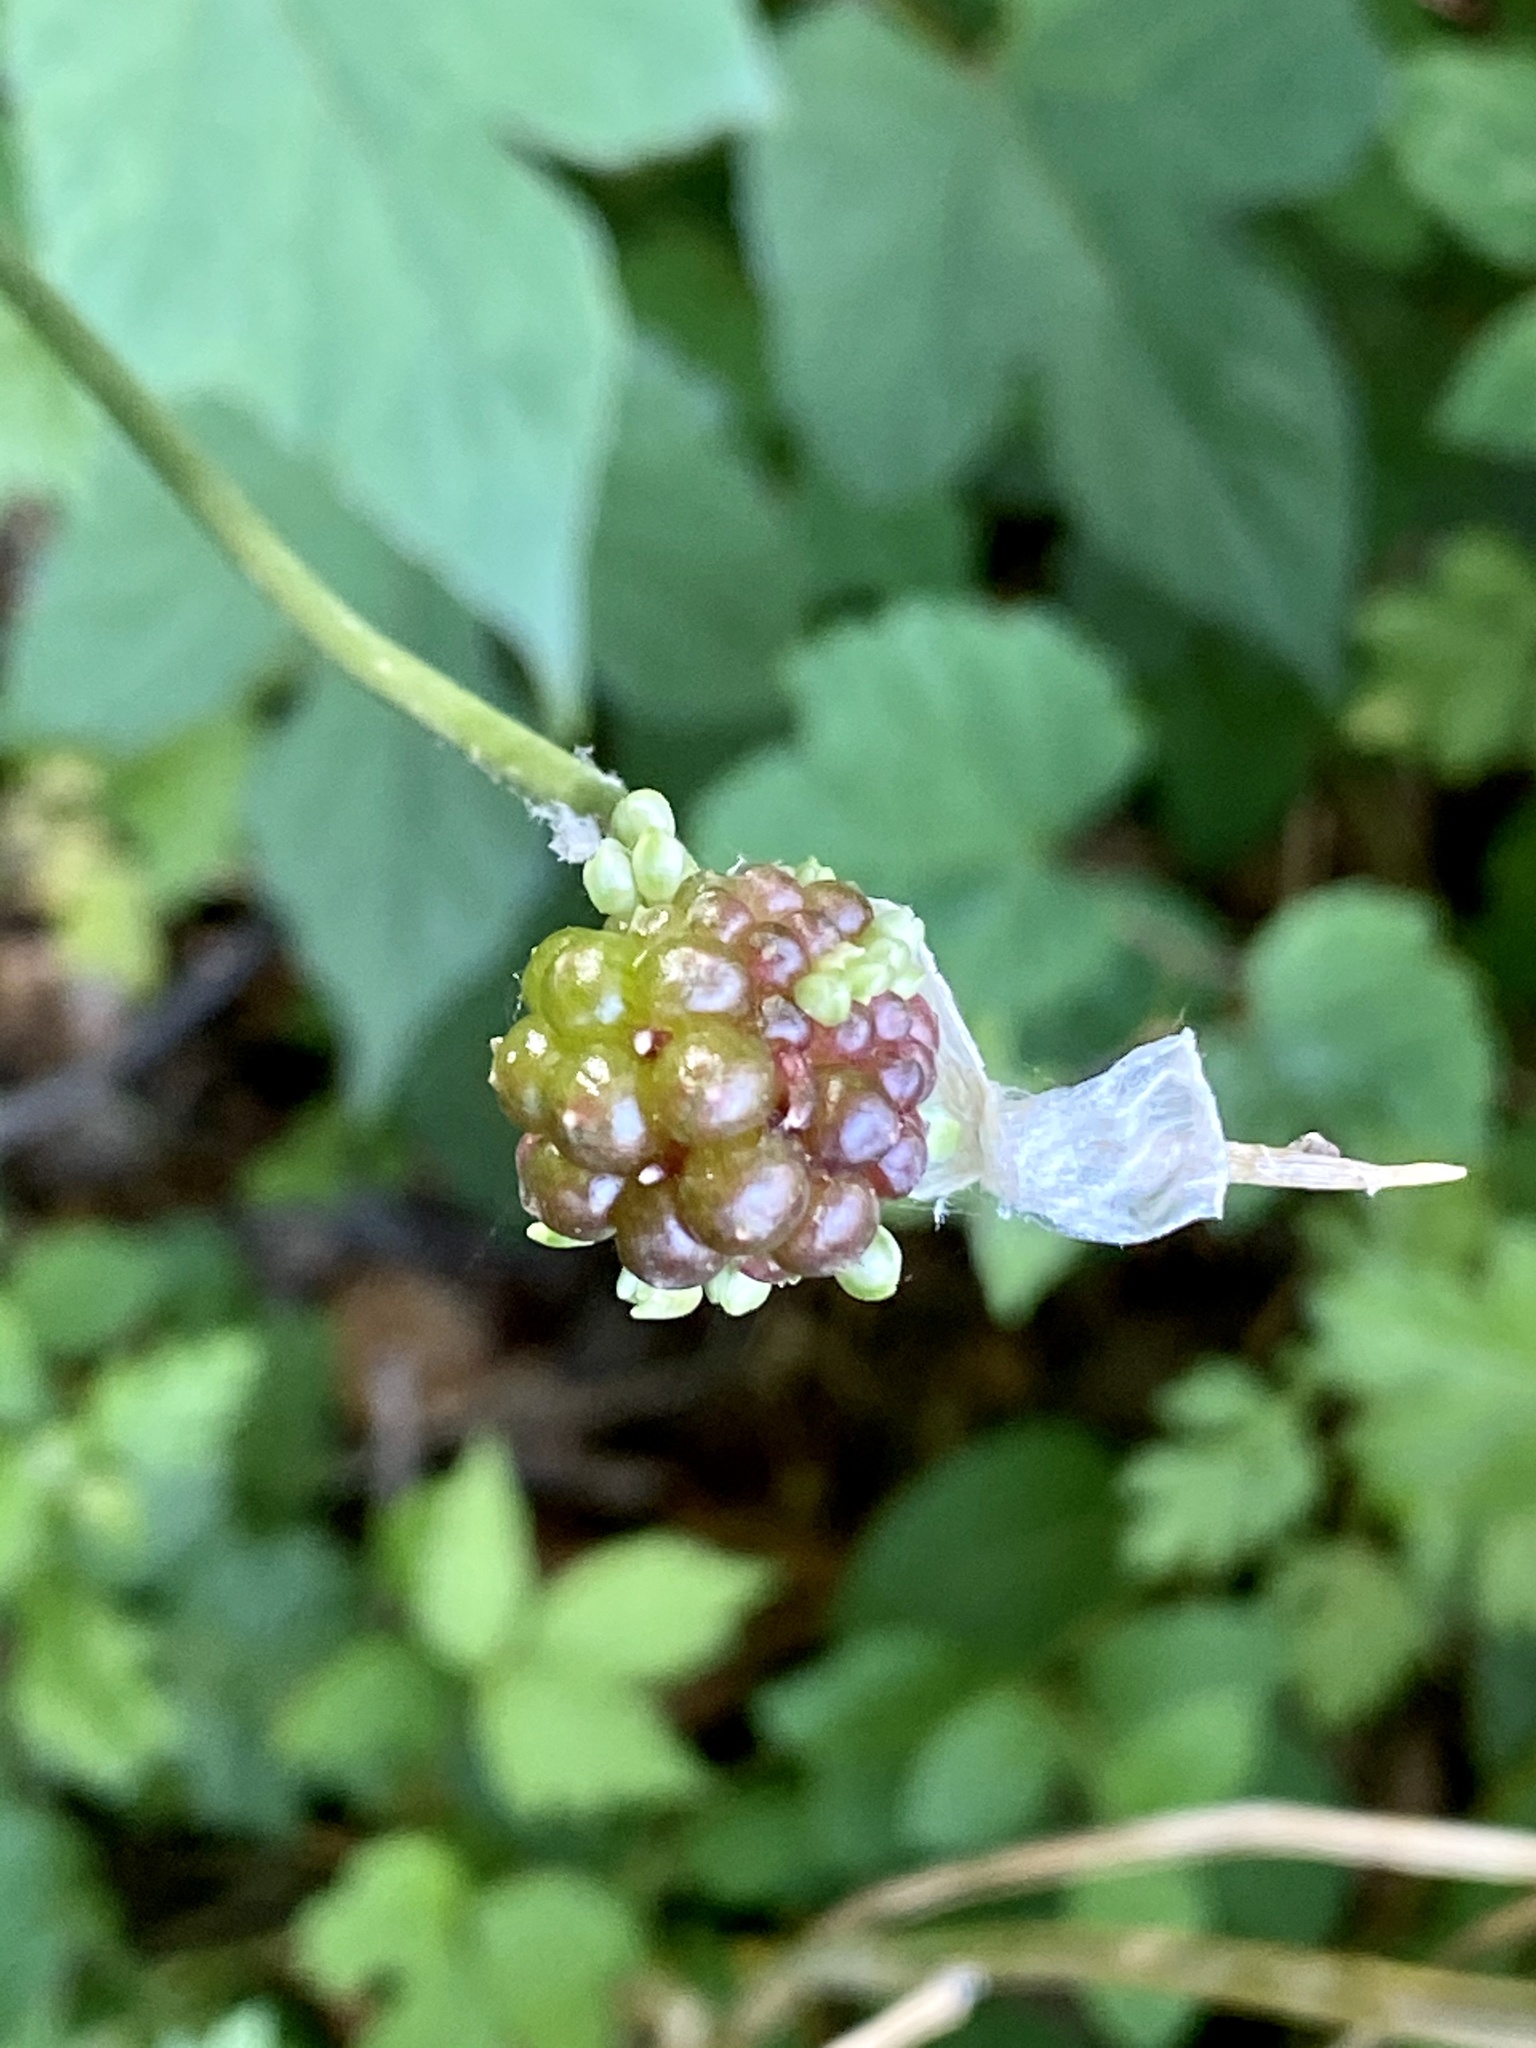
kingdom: Plantae
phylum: Tracheophyta
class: Liliopsida
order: Asparagales
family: Amaryllidaceae
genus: Allium
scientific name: Allium vineale
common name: Crow garlic
